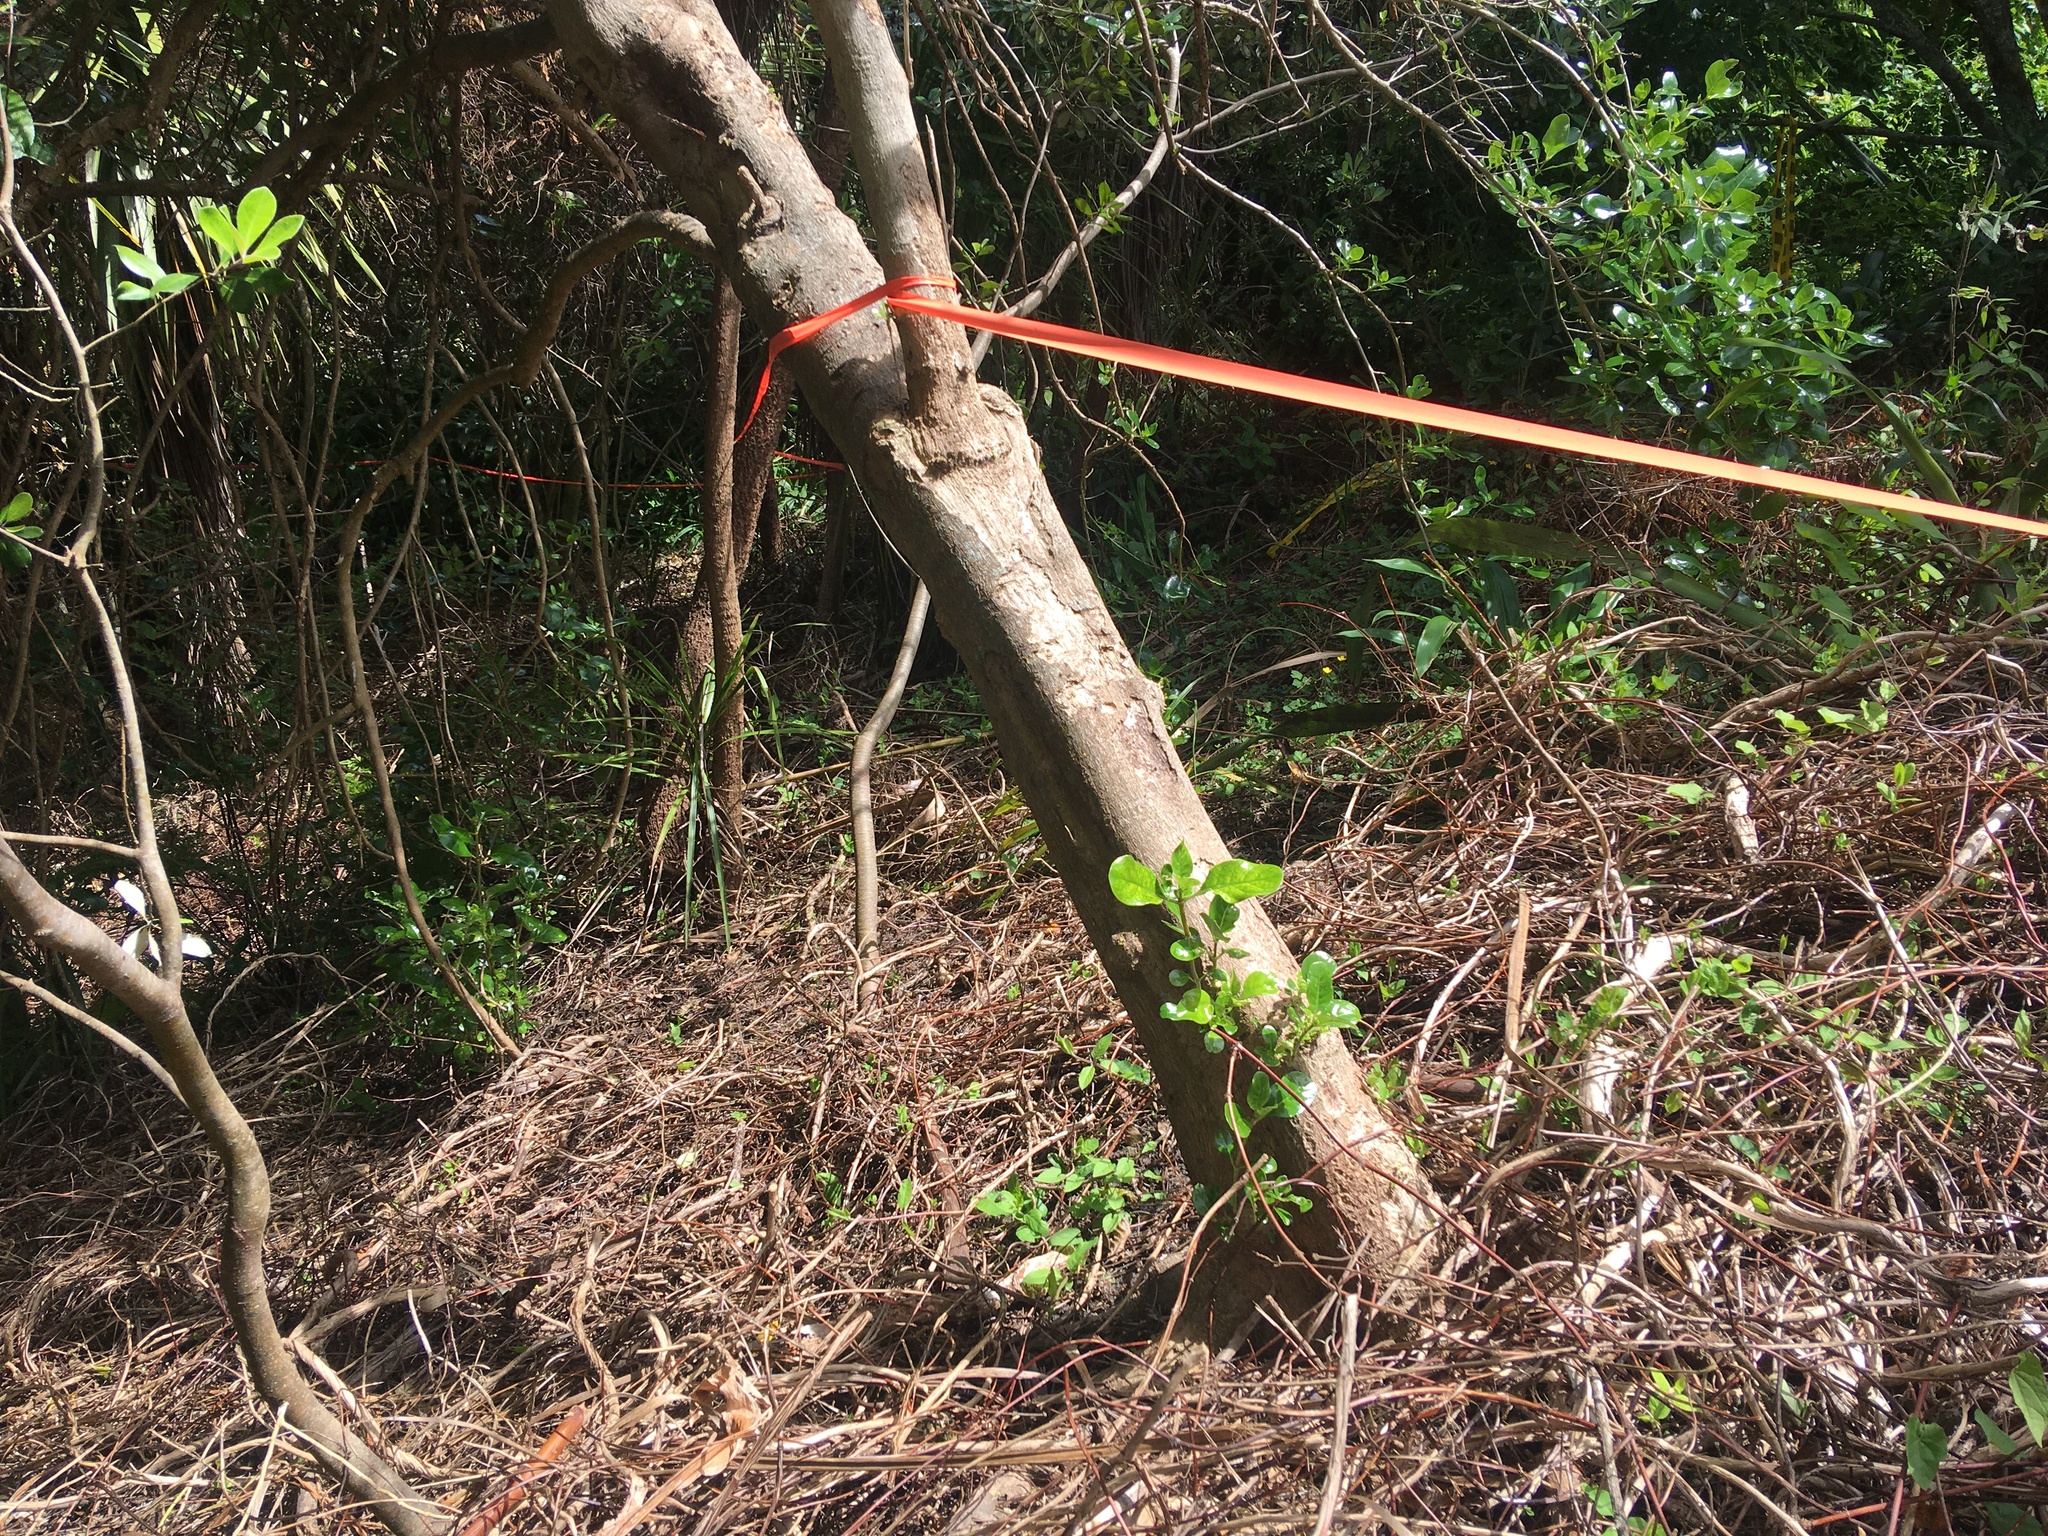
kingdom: Plantae
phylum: Tracheophyta
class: Magnoliopsida
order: Gentianales
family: Rubiaceae
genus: Coprosma
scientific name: Coprosma repens
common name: Tree bedstraw
